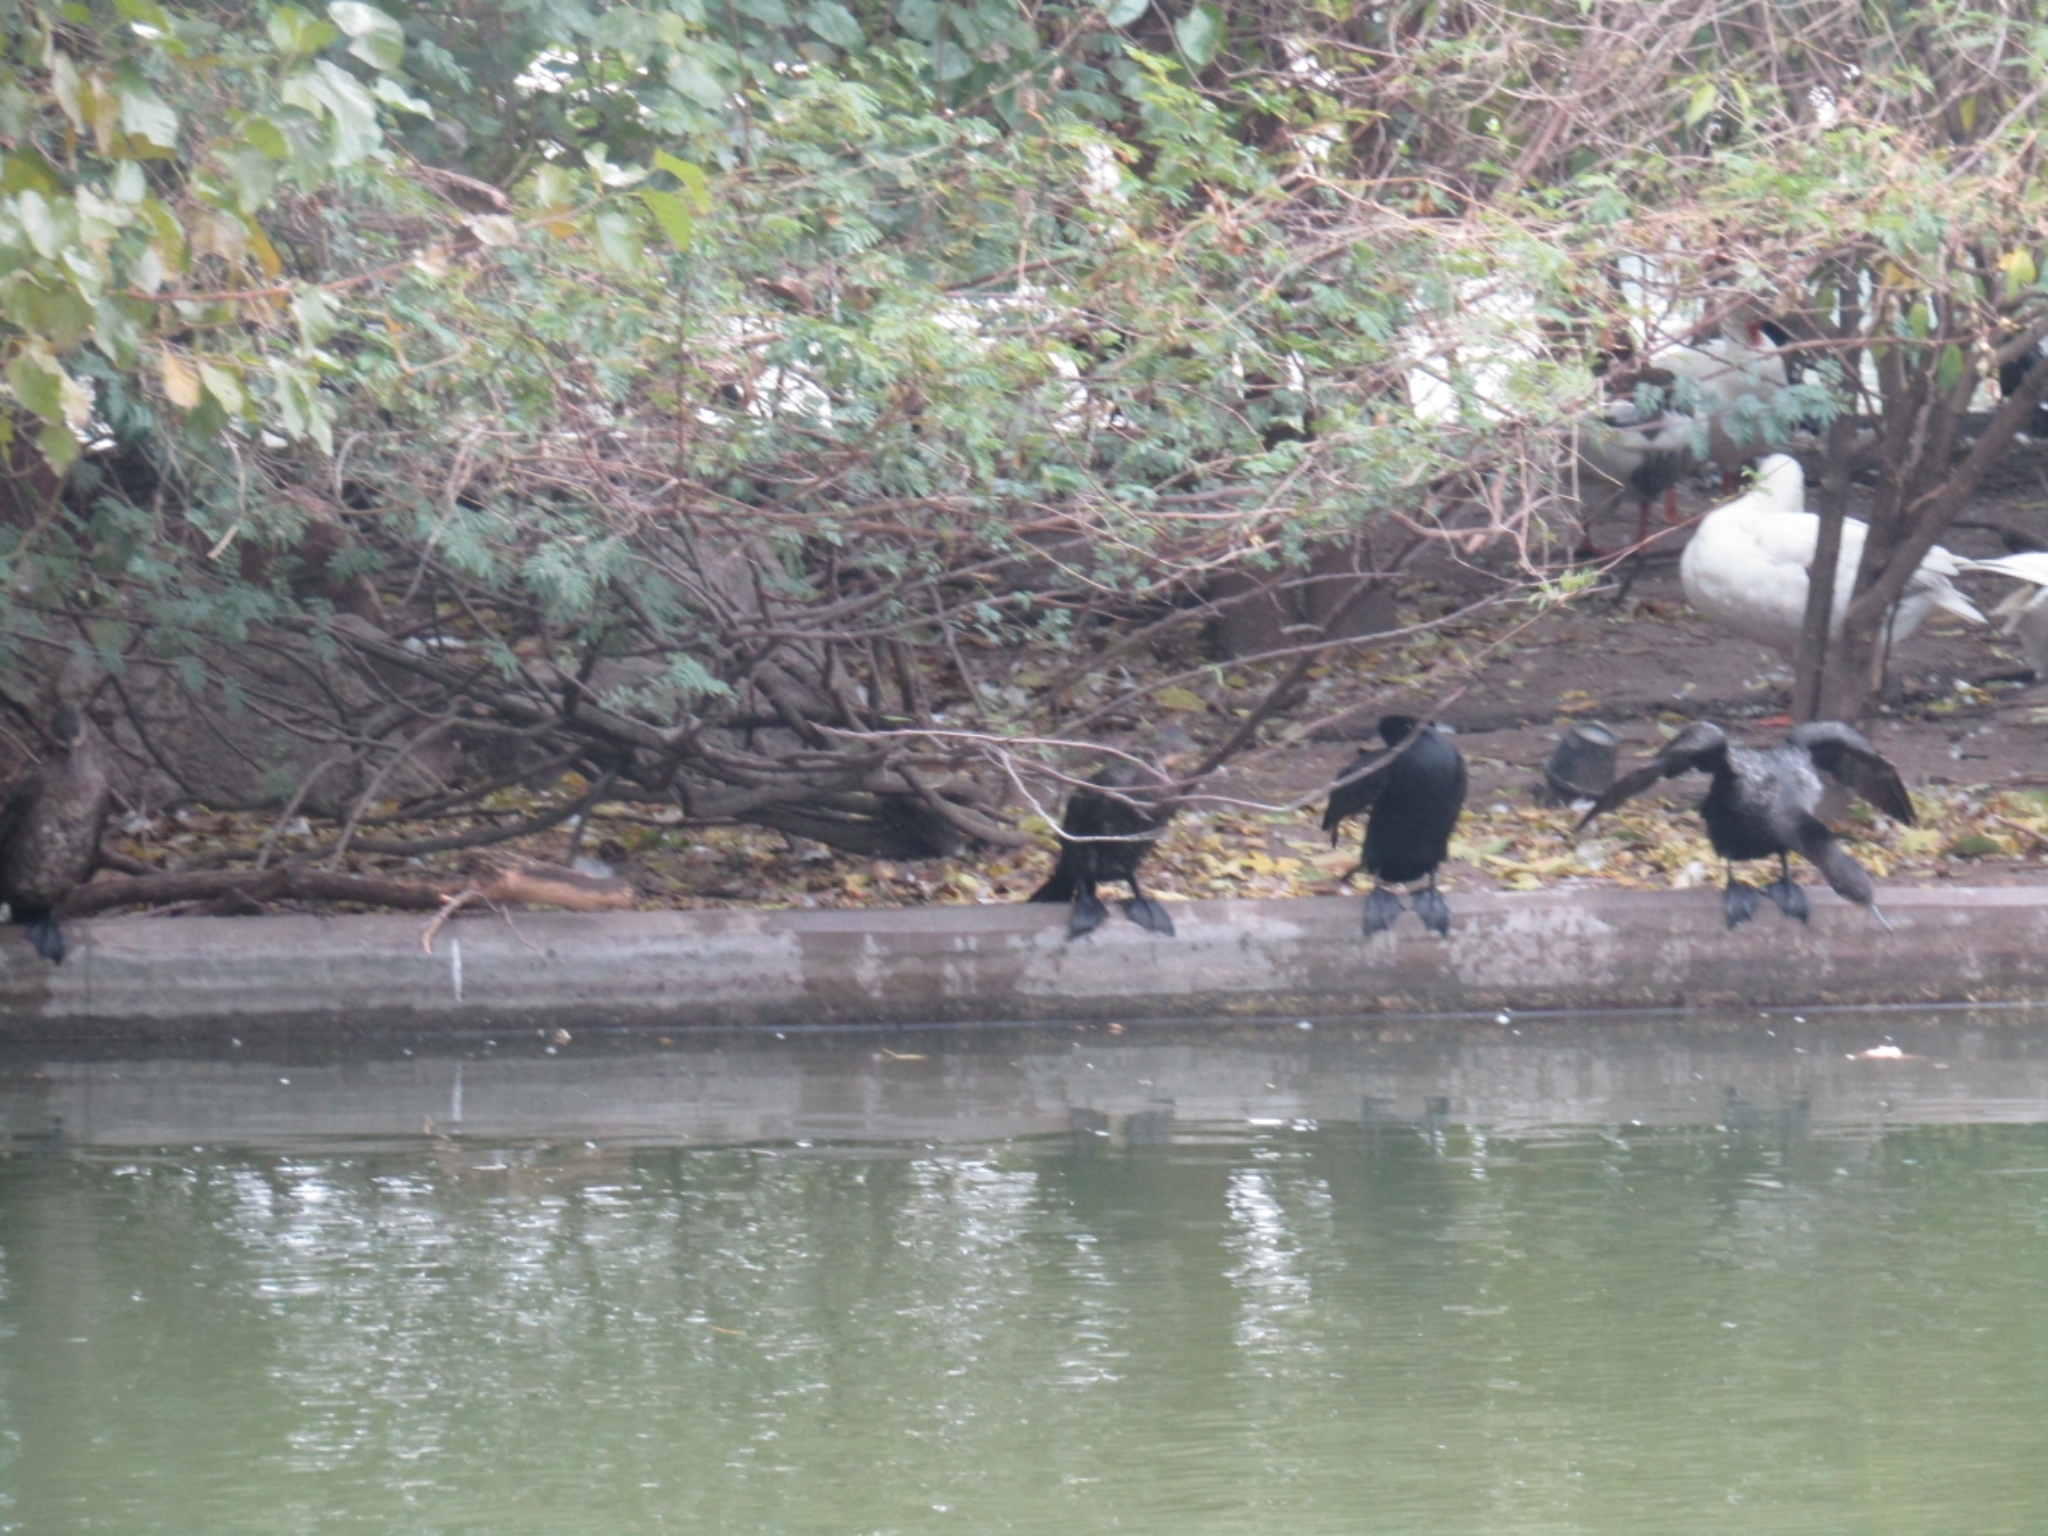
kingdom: Animalia
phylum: Chordata
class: Aves
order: Suliformes
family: Phalacrocoracidae
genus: Phalacrocorax
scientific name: Phalacrocorax brasilianus
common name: Neotropic cormorant
